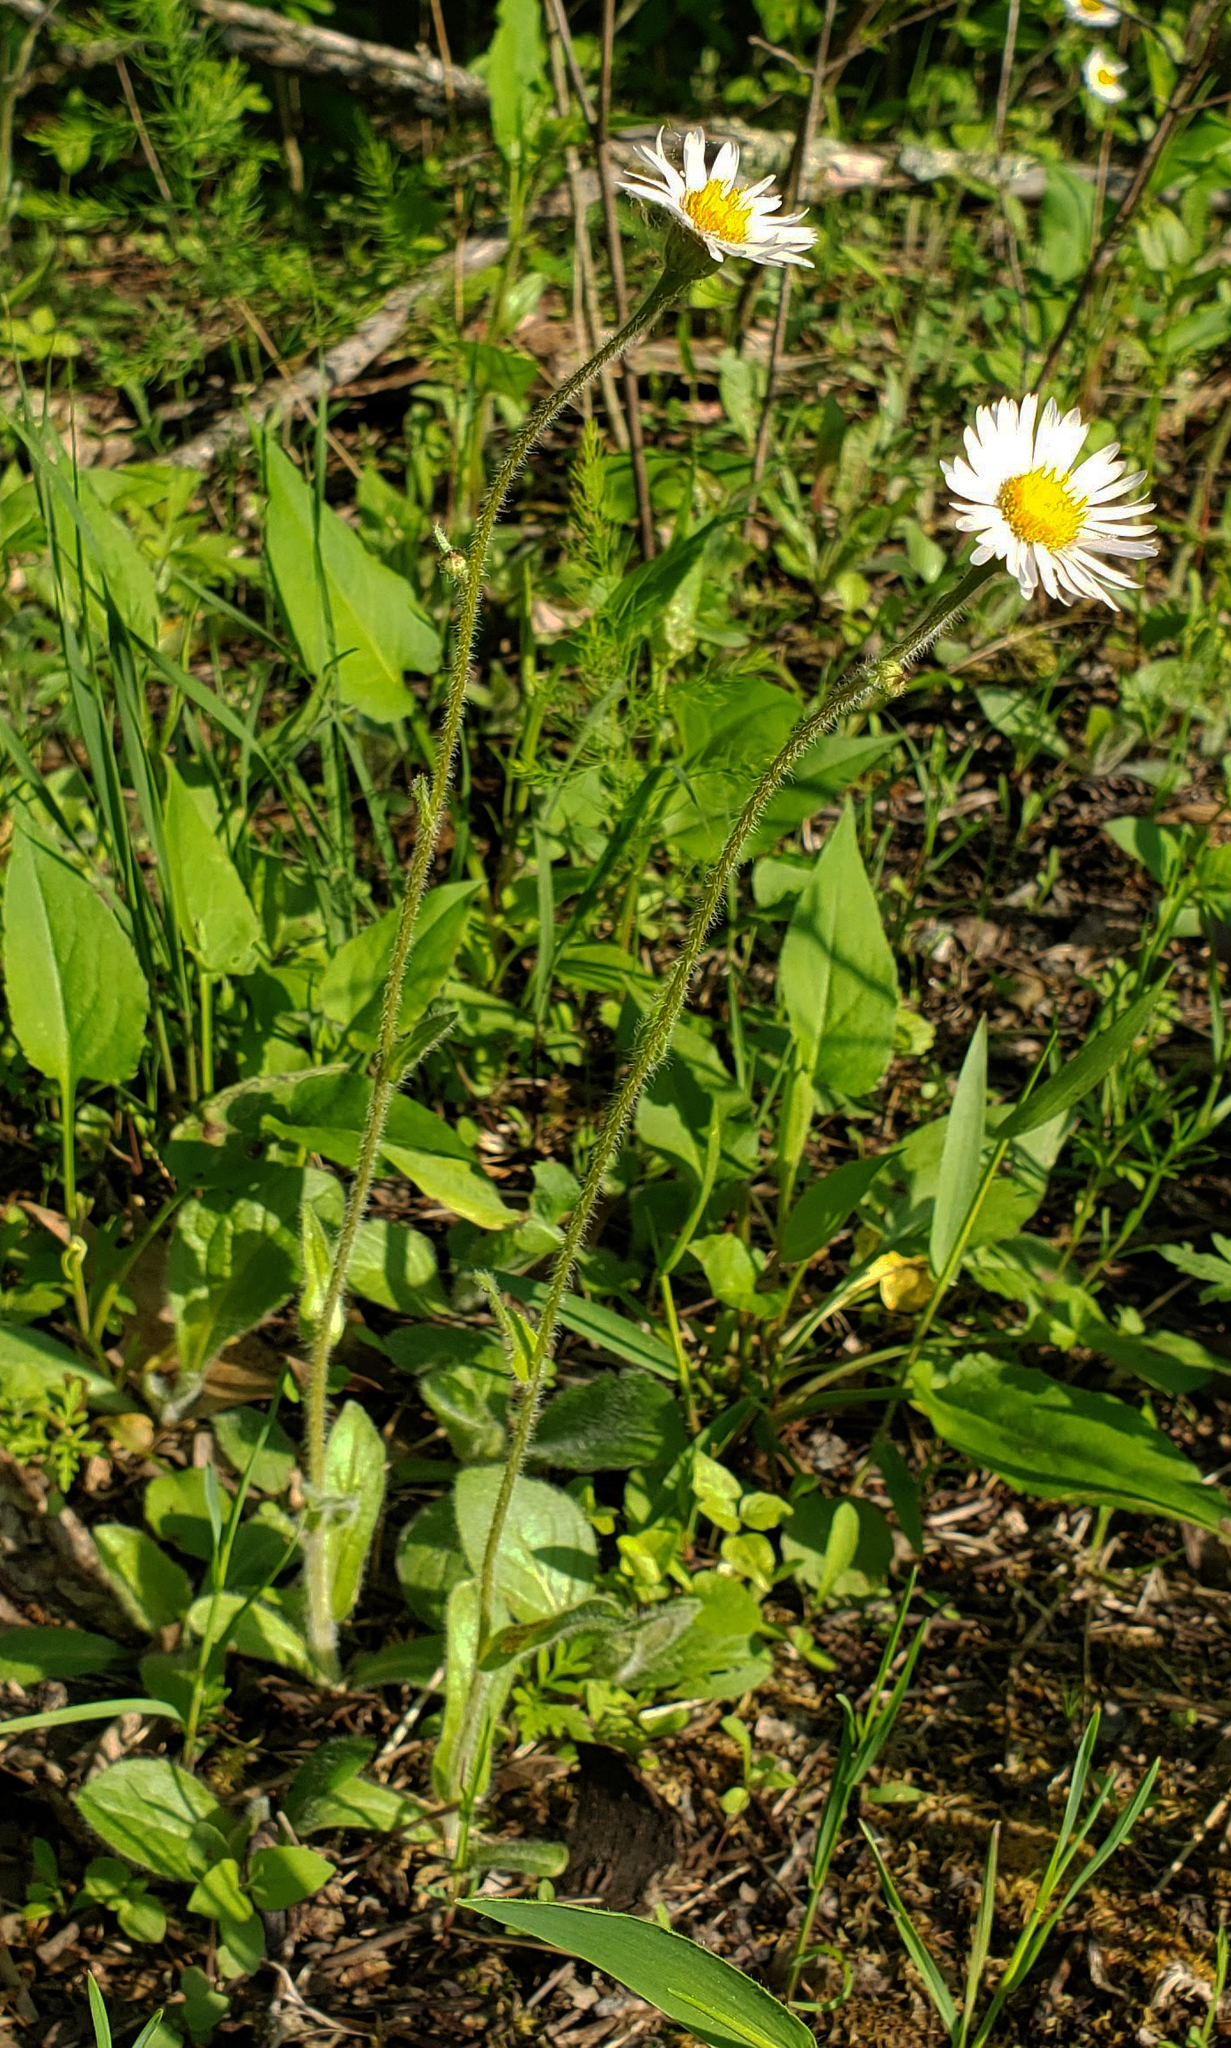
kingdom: Plantae
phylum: Tracheophyta
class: Magnoliopsida
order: Asterales
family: Asteraceae
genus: Erigeron
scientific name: Erigeron pulchellus
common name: Hairy fleabane
